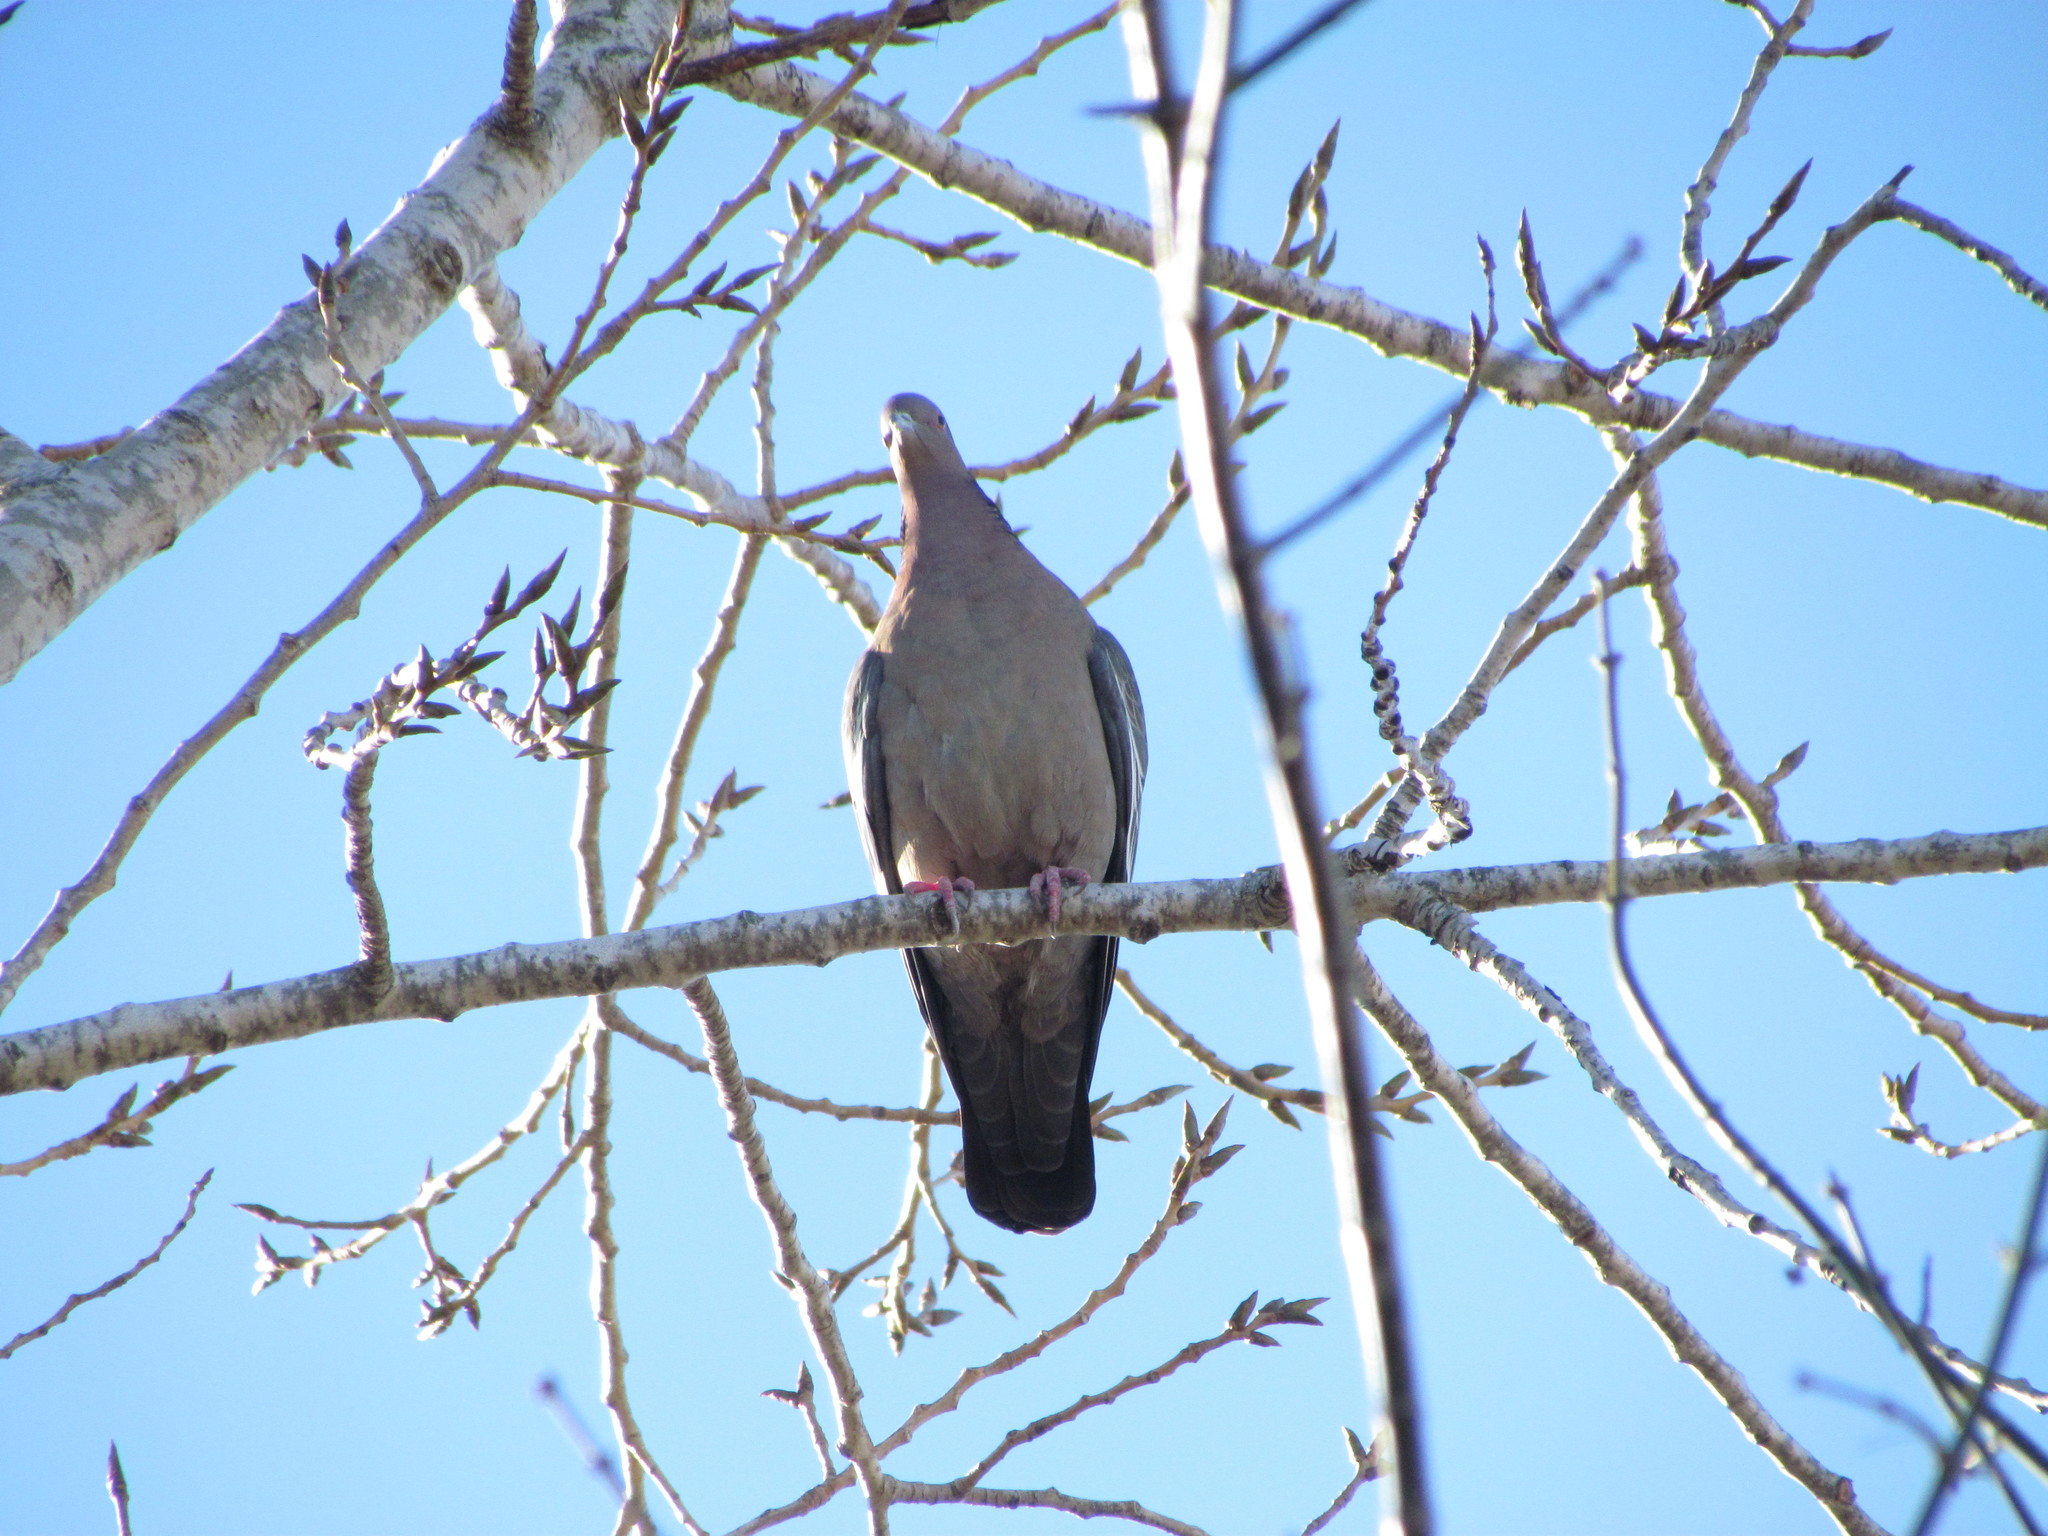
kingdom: Animalia
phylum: Chordata
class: Aves
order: Columbiformes
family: Columbidae
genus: Patagioenas
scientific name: Patagioenas picazuro
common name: Picazuro pigeon
